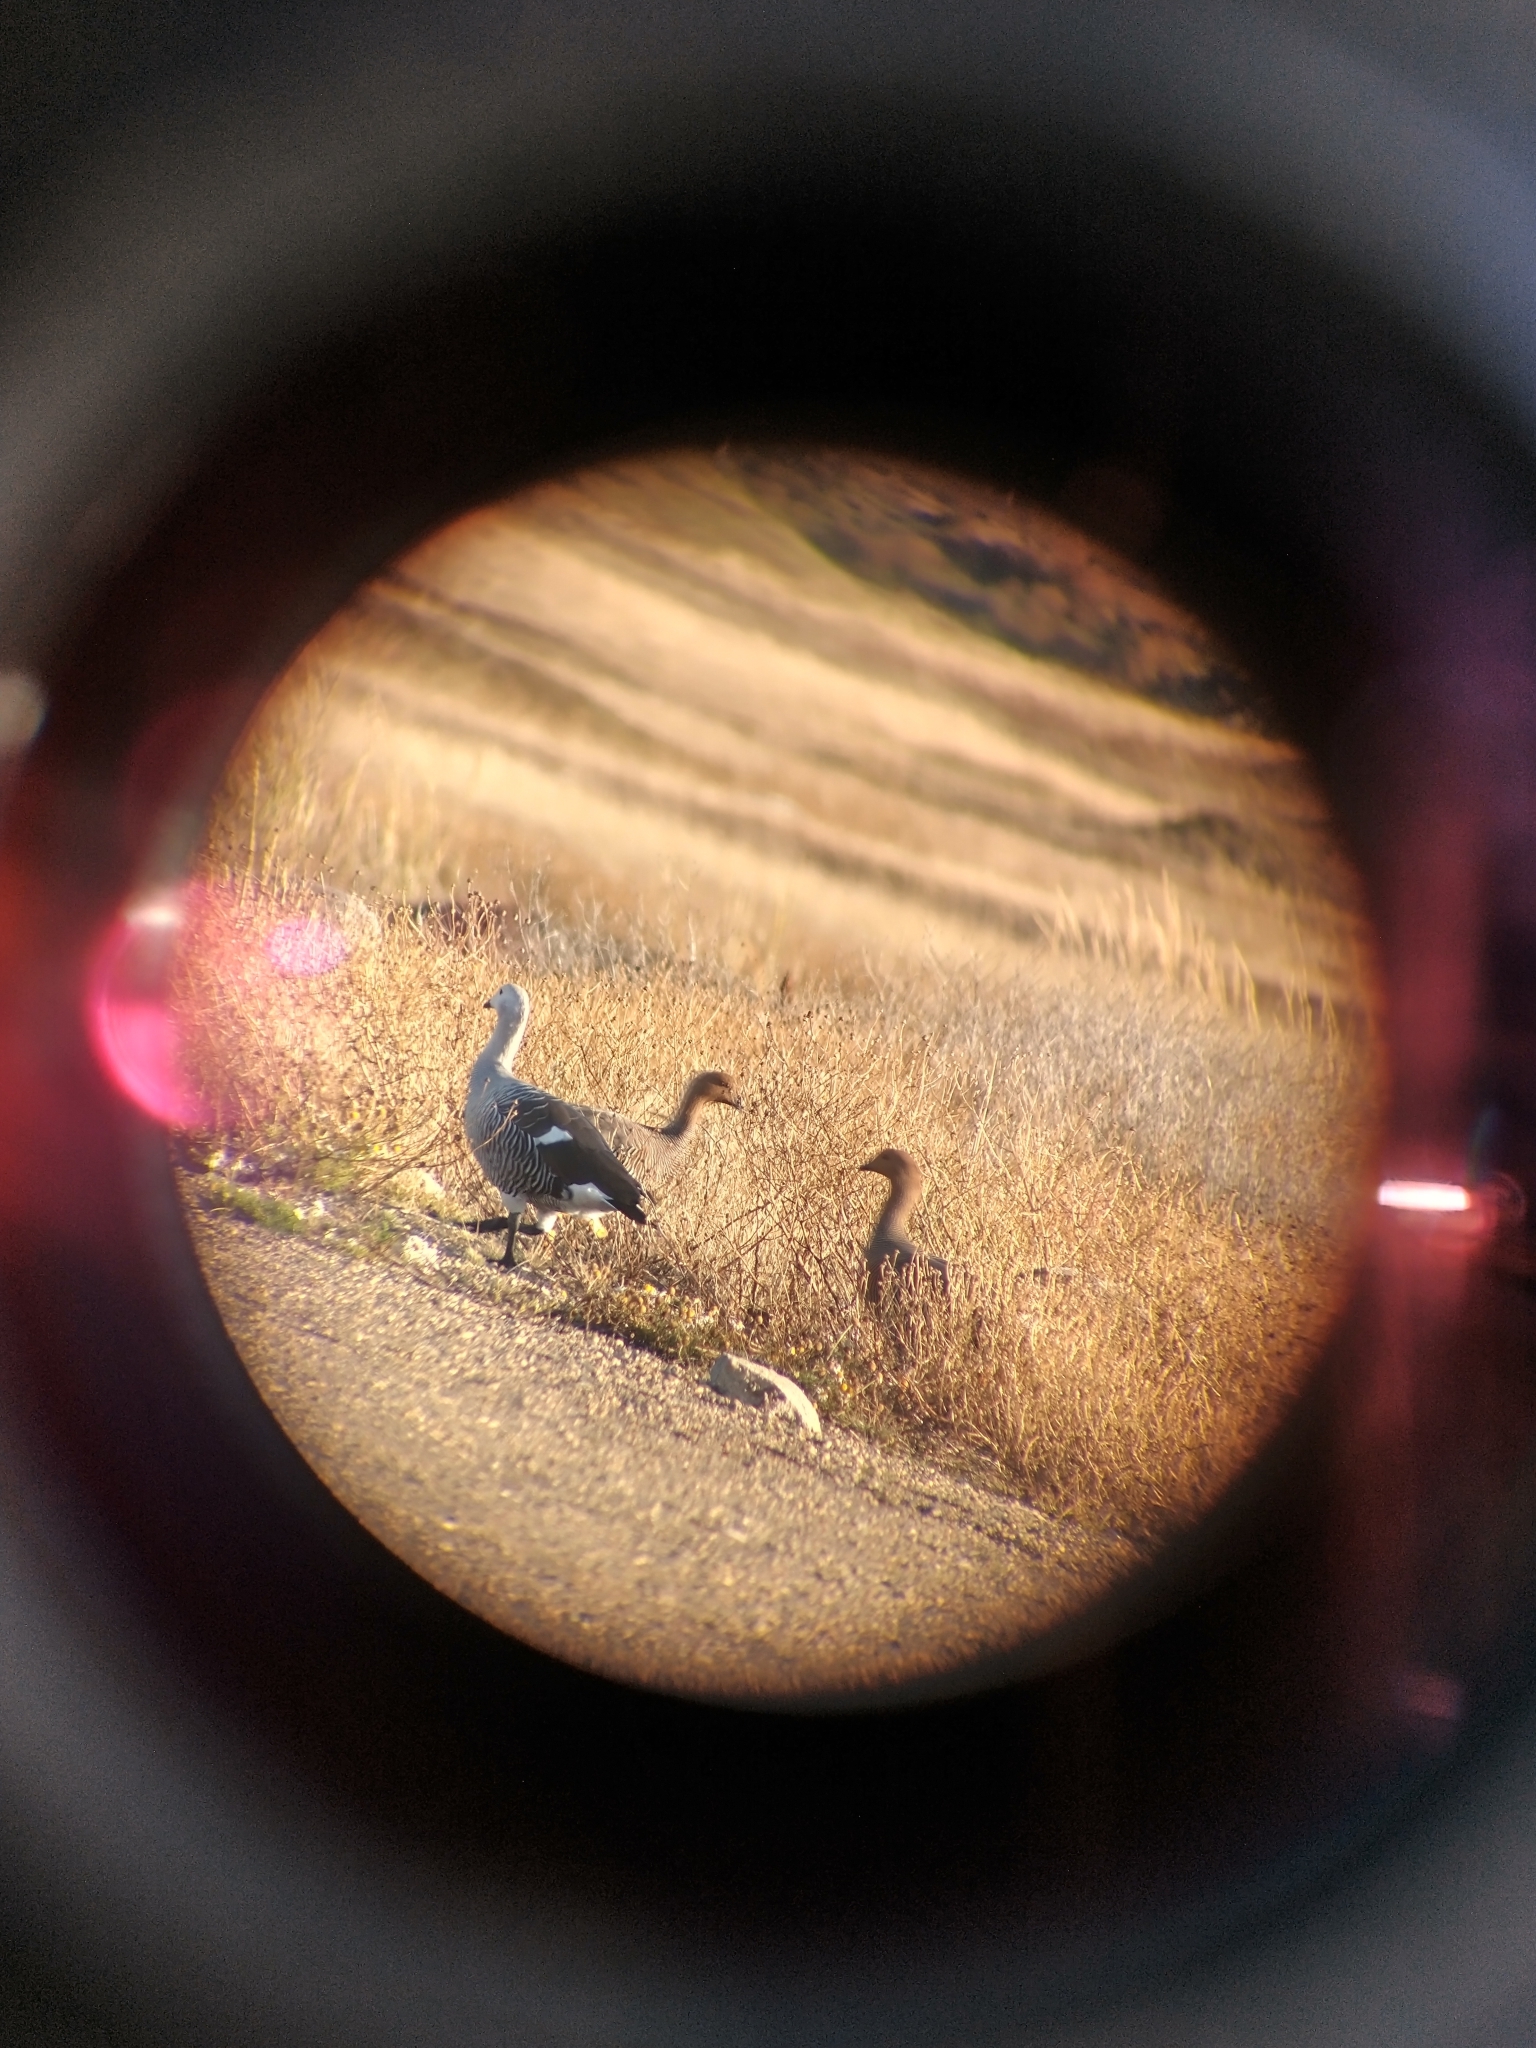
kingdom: Animalia
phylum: Chordata
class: Aves
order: Anseriformes
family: Anatidae
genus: Chloephaga
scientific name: Chloephaga picta
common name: Upland goose
